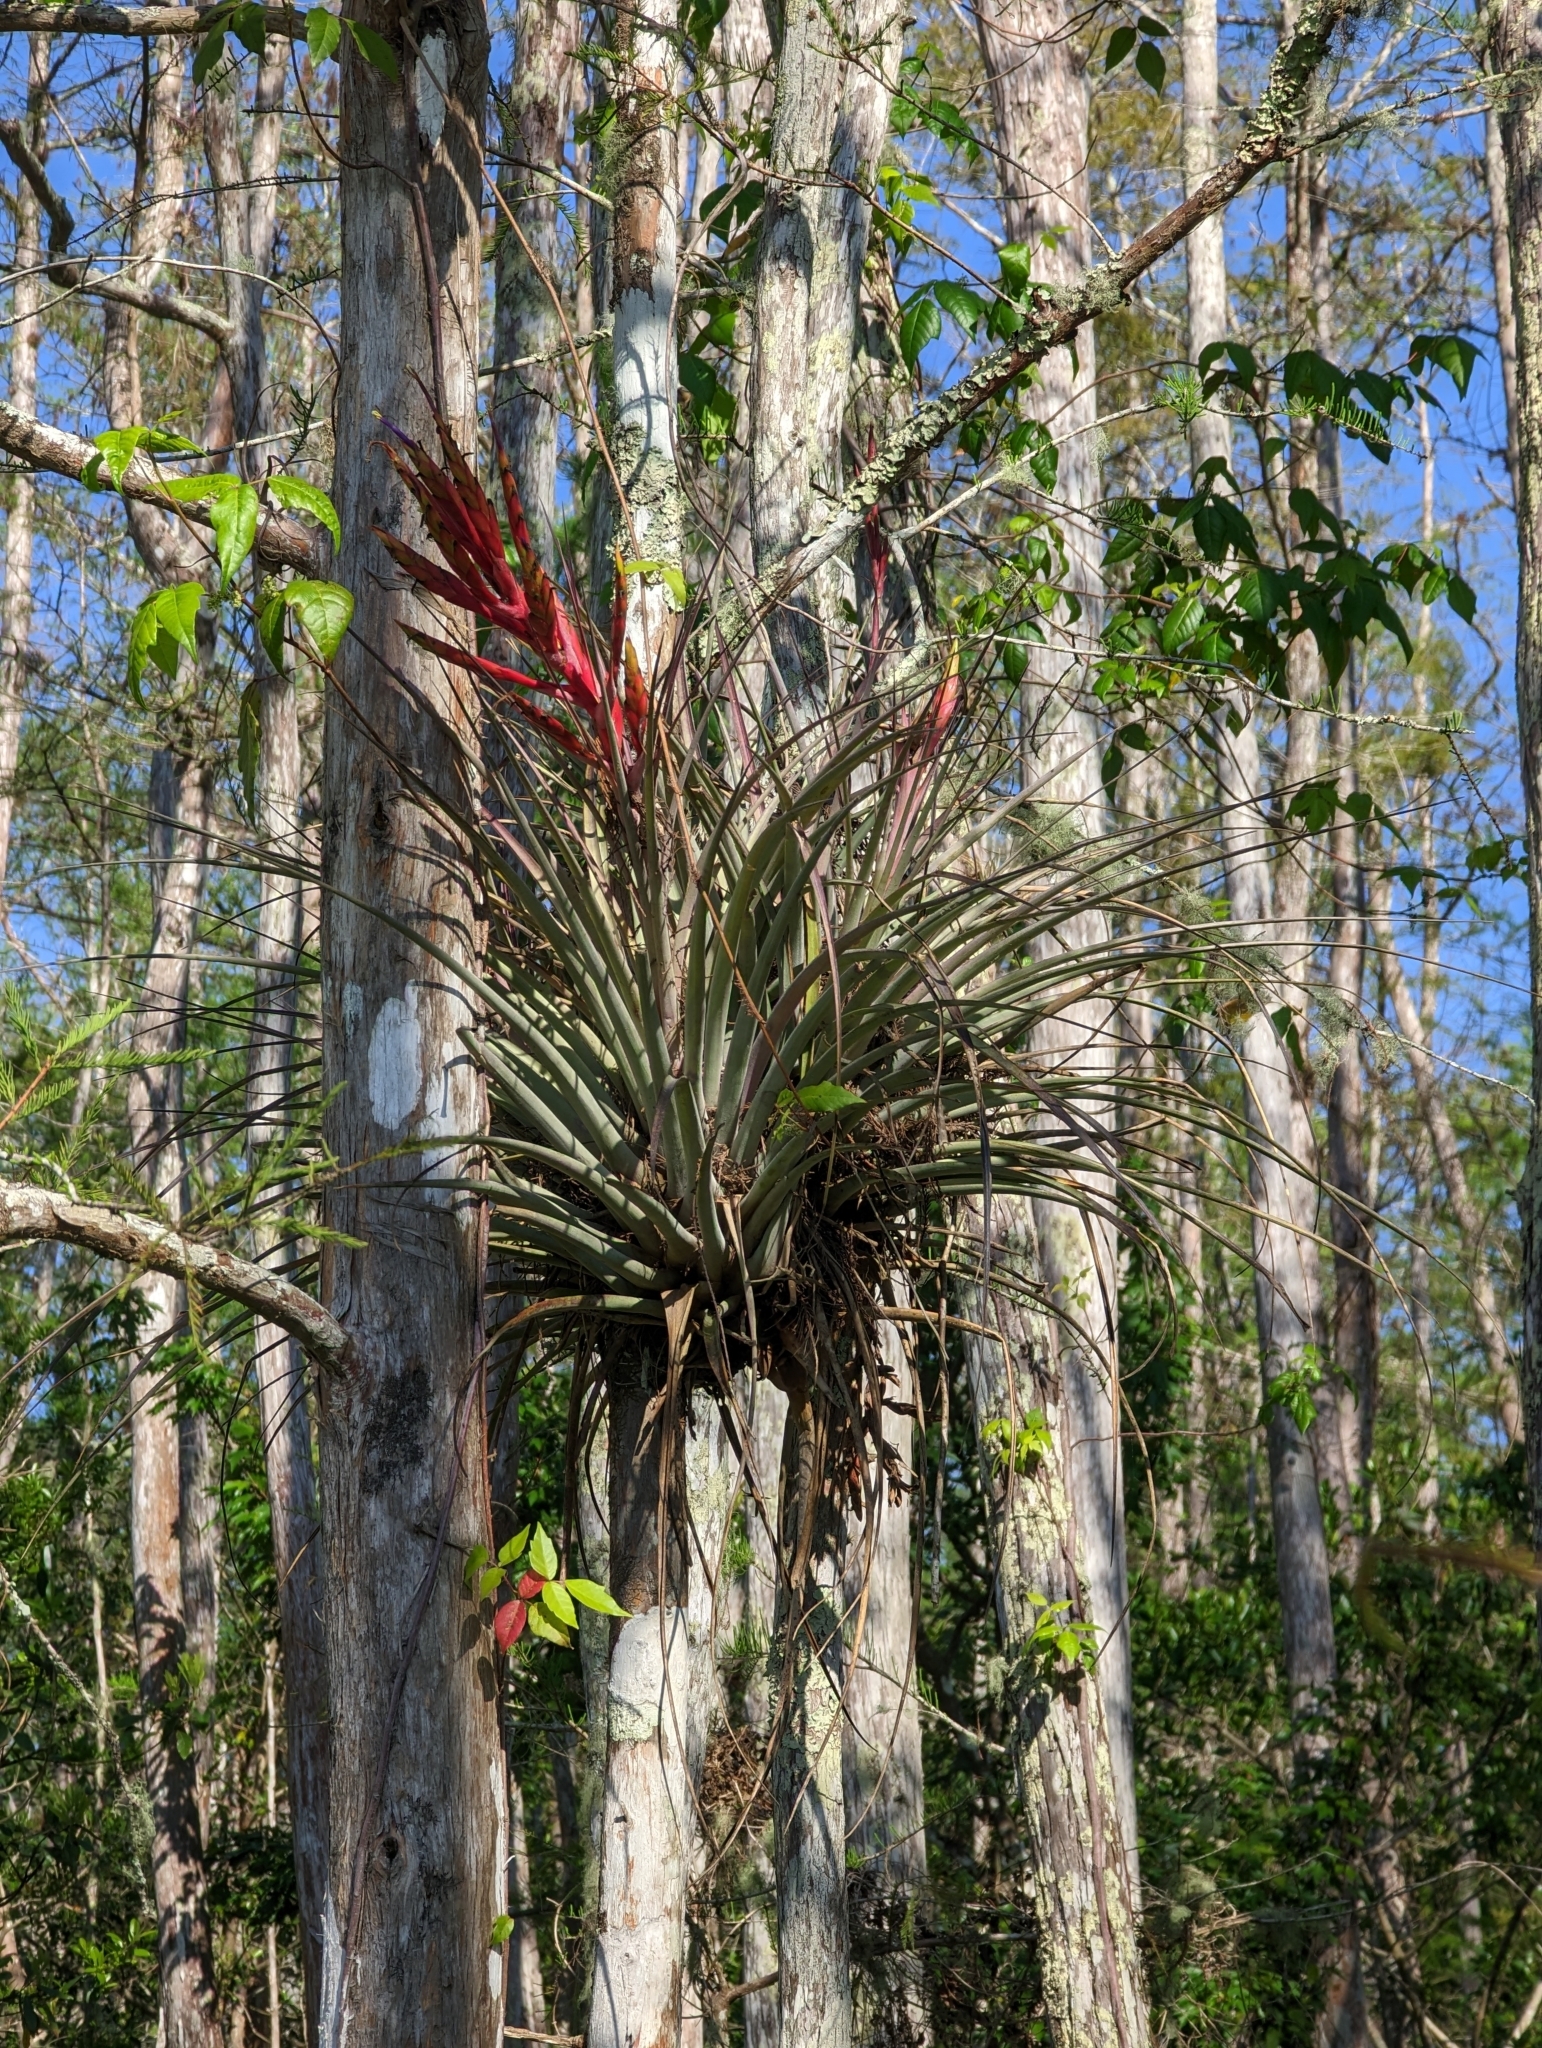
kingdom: Plantae
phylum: Tracheophyta
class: Liliopsida
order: Poales
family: Bromeliaceae
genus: Tillandsia
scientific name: Tillandsia fasciculata
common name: Giant airplant
